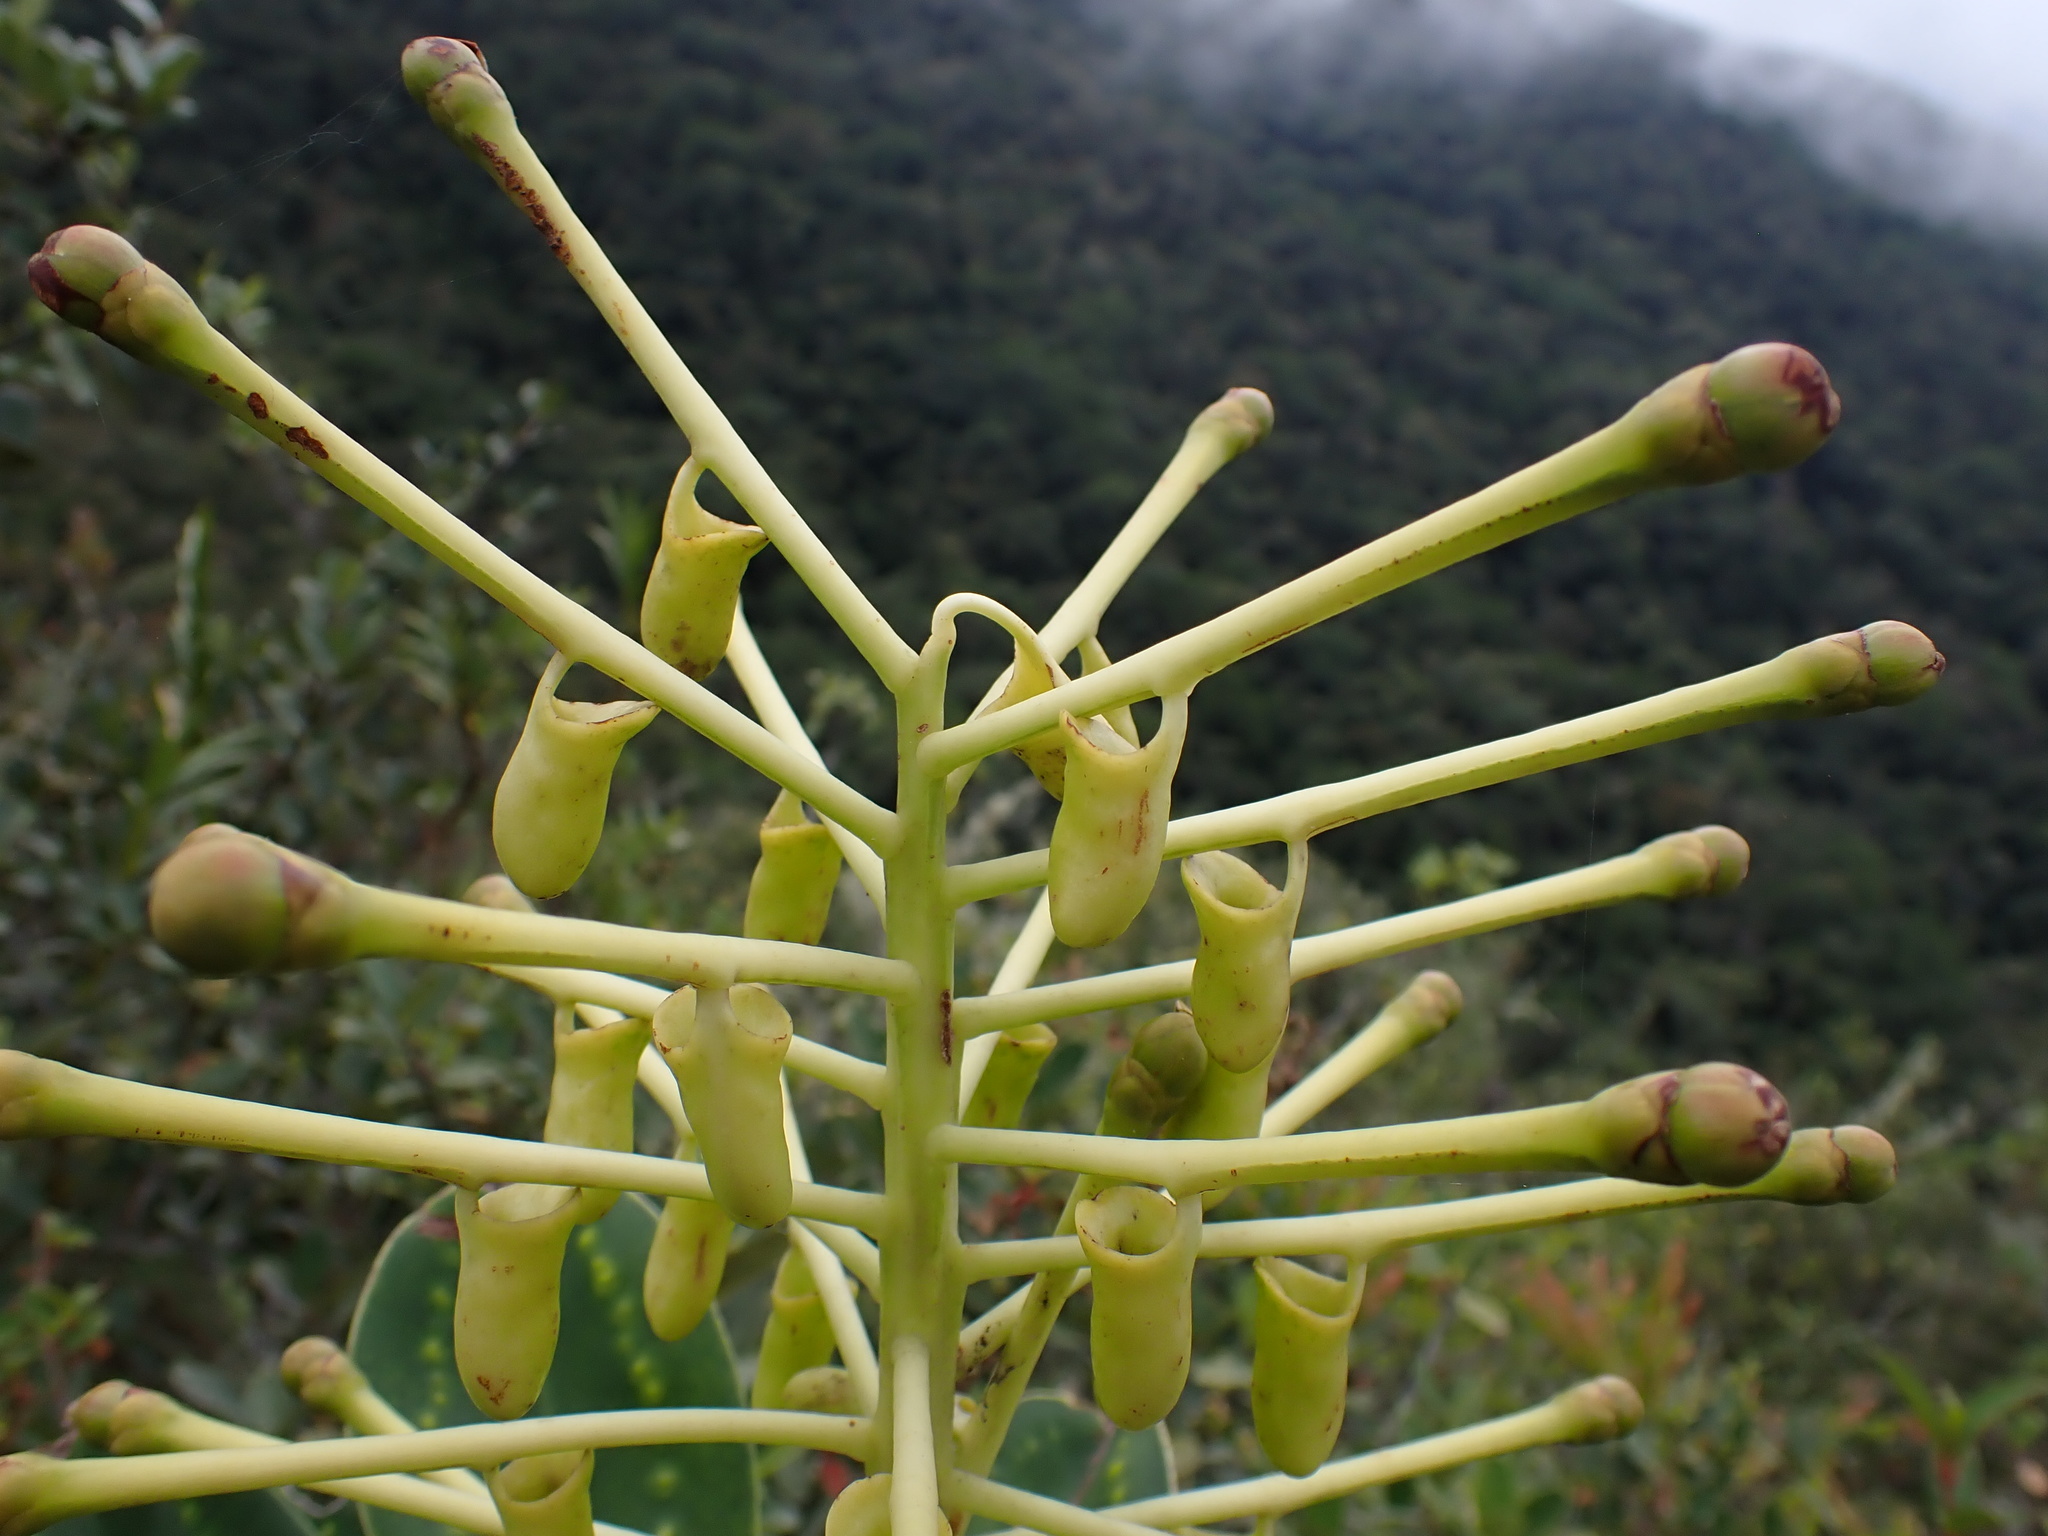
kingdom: Plantae
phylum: Tracheophyta
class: Magnoliopsida
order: Ericales
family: Marcgraviaceae
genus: Schwartzia
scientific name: Schwartzia magnifica
